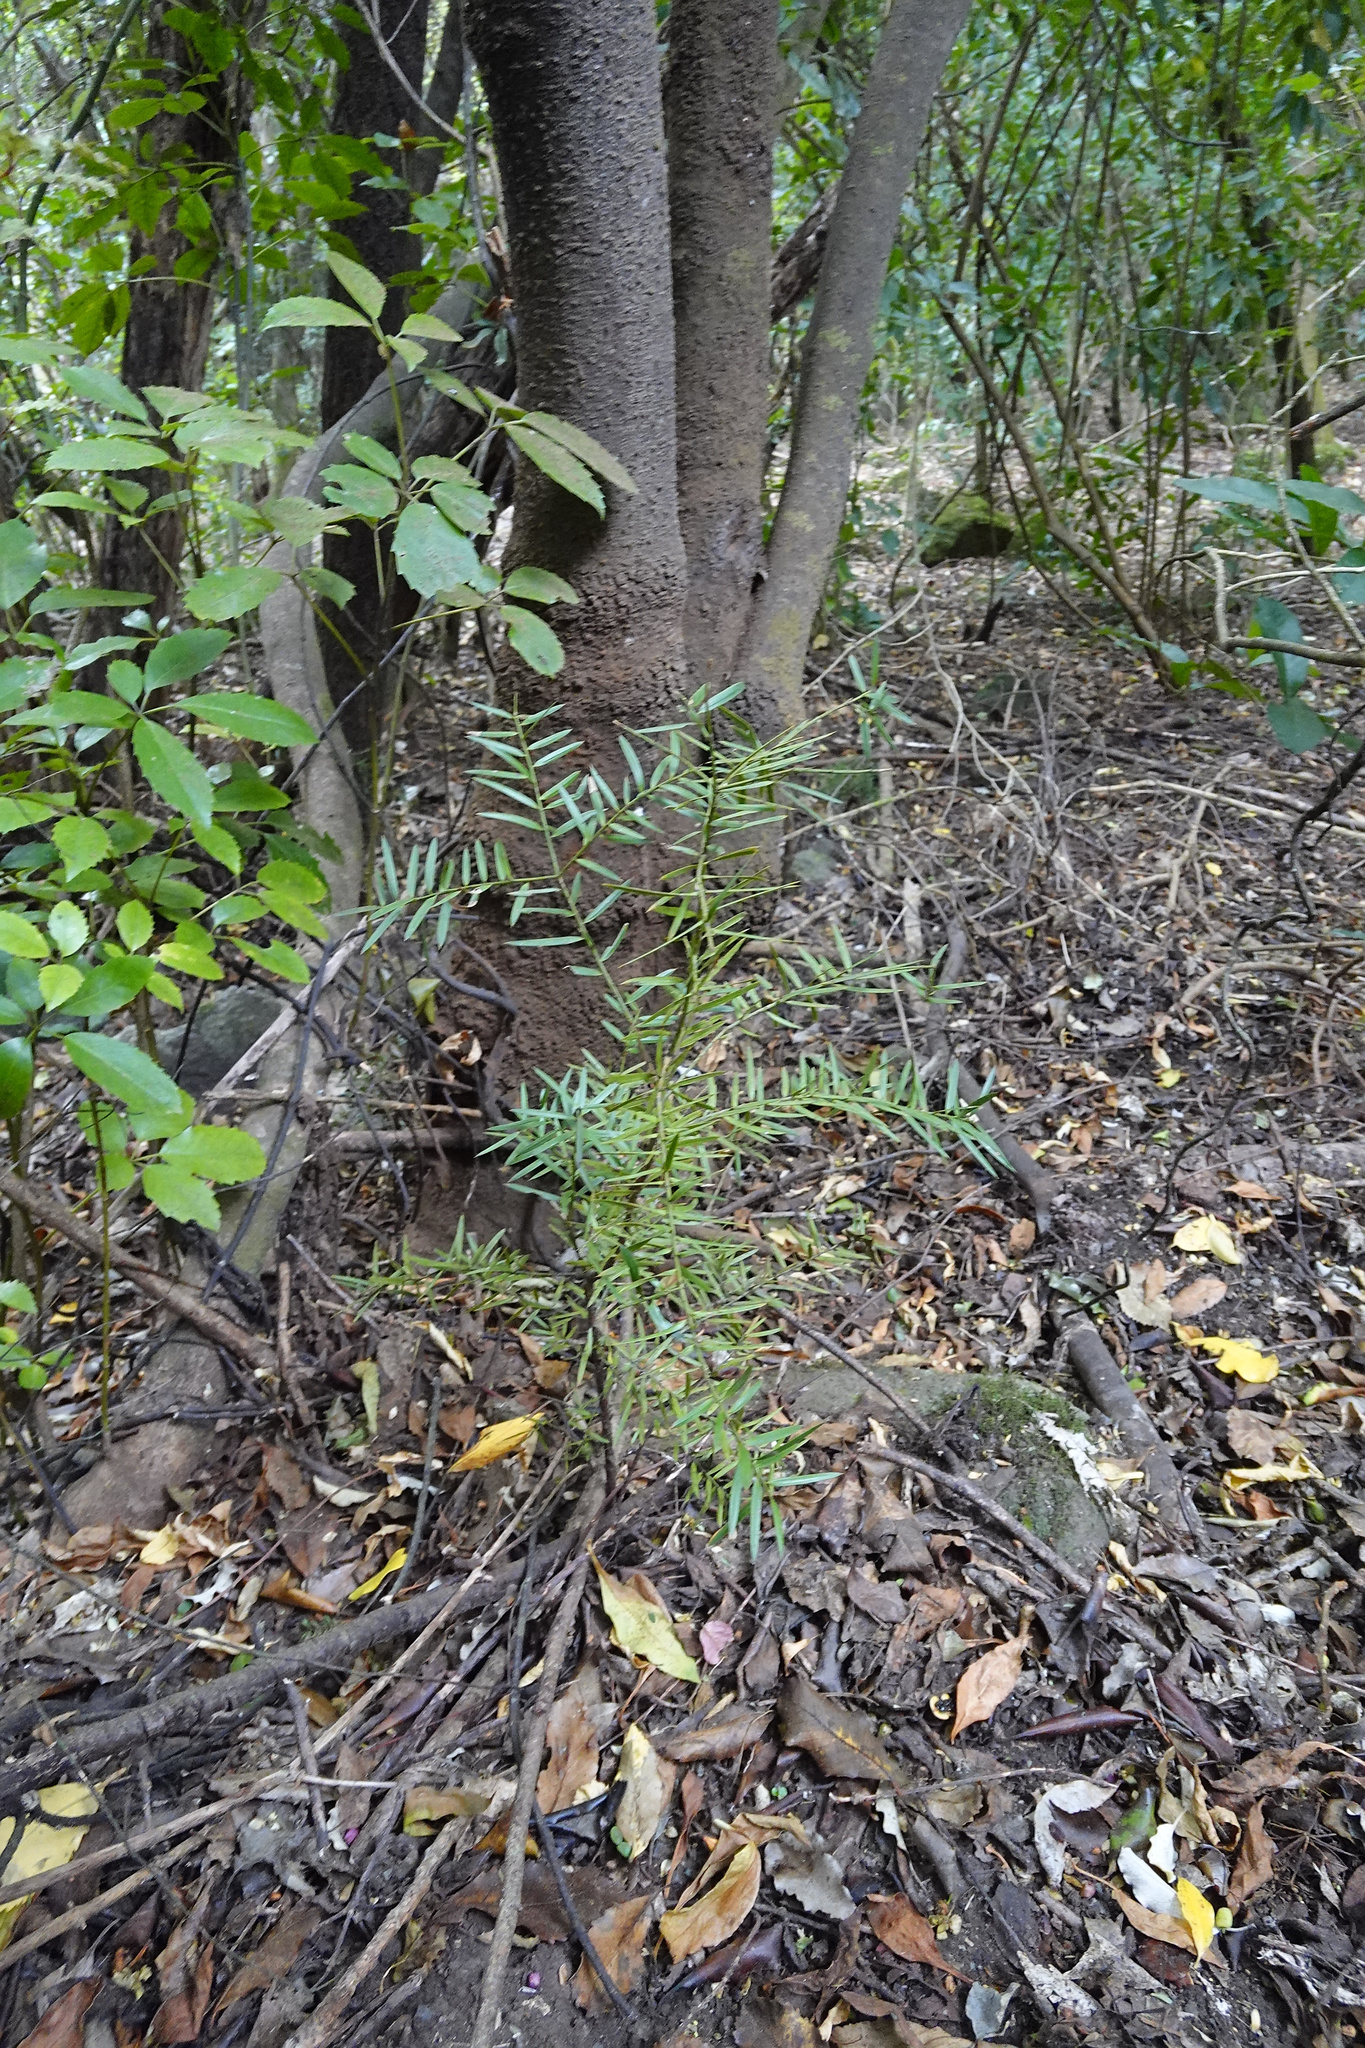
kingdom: Plantae
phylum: Tracheophyta
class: Pinopsida
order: Pinales
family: Podocarpaceae
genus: Podocarpus
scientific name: Podocarpus totara
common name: Totara
